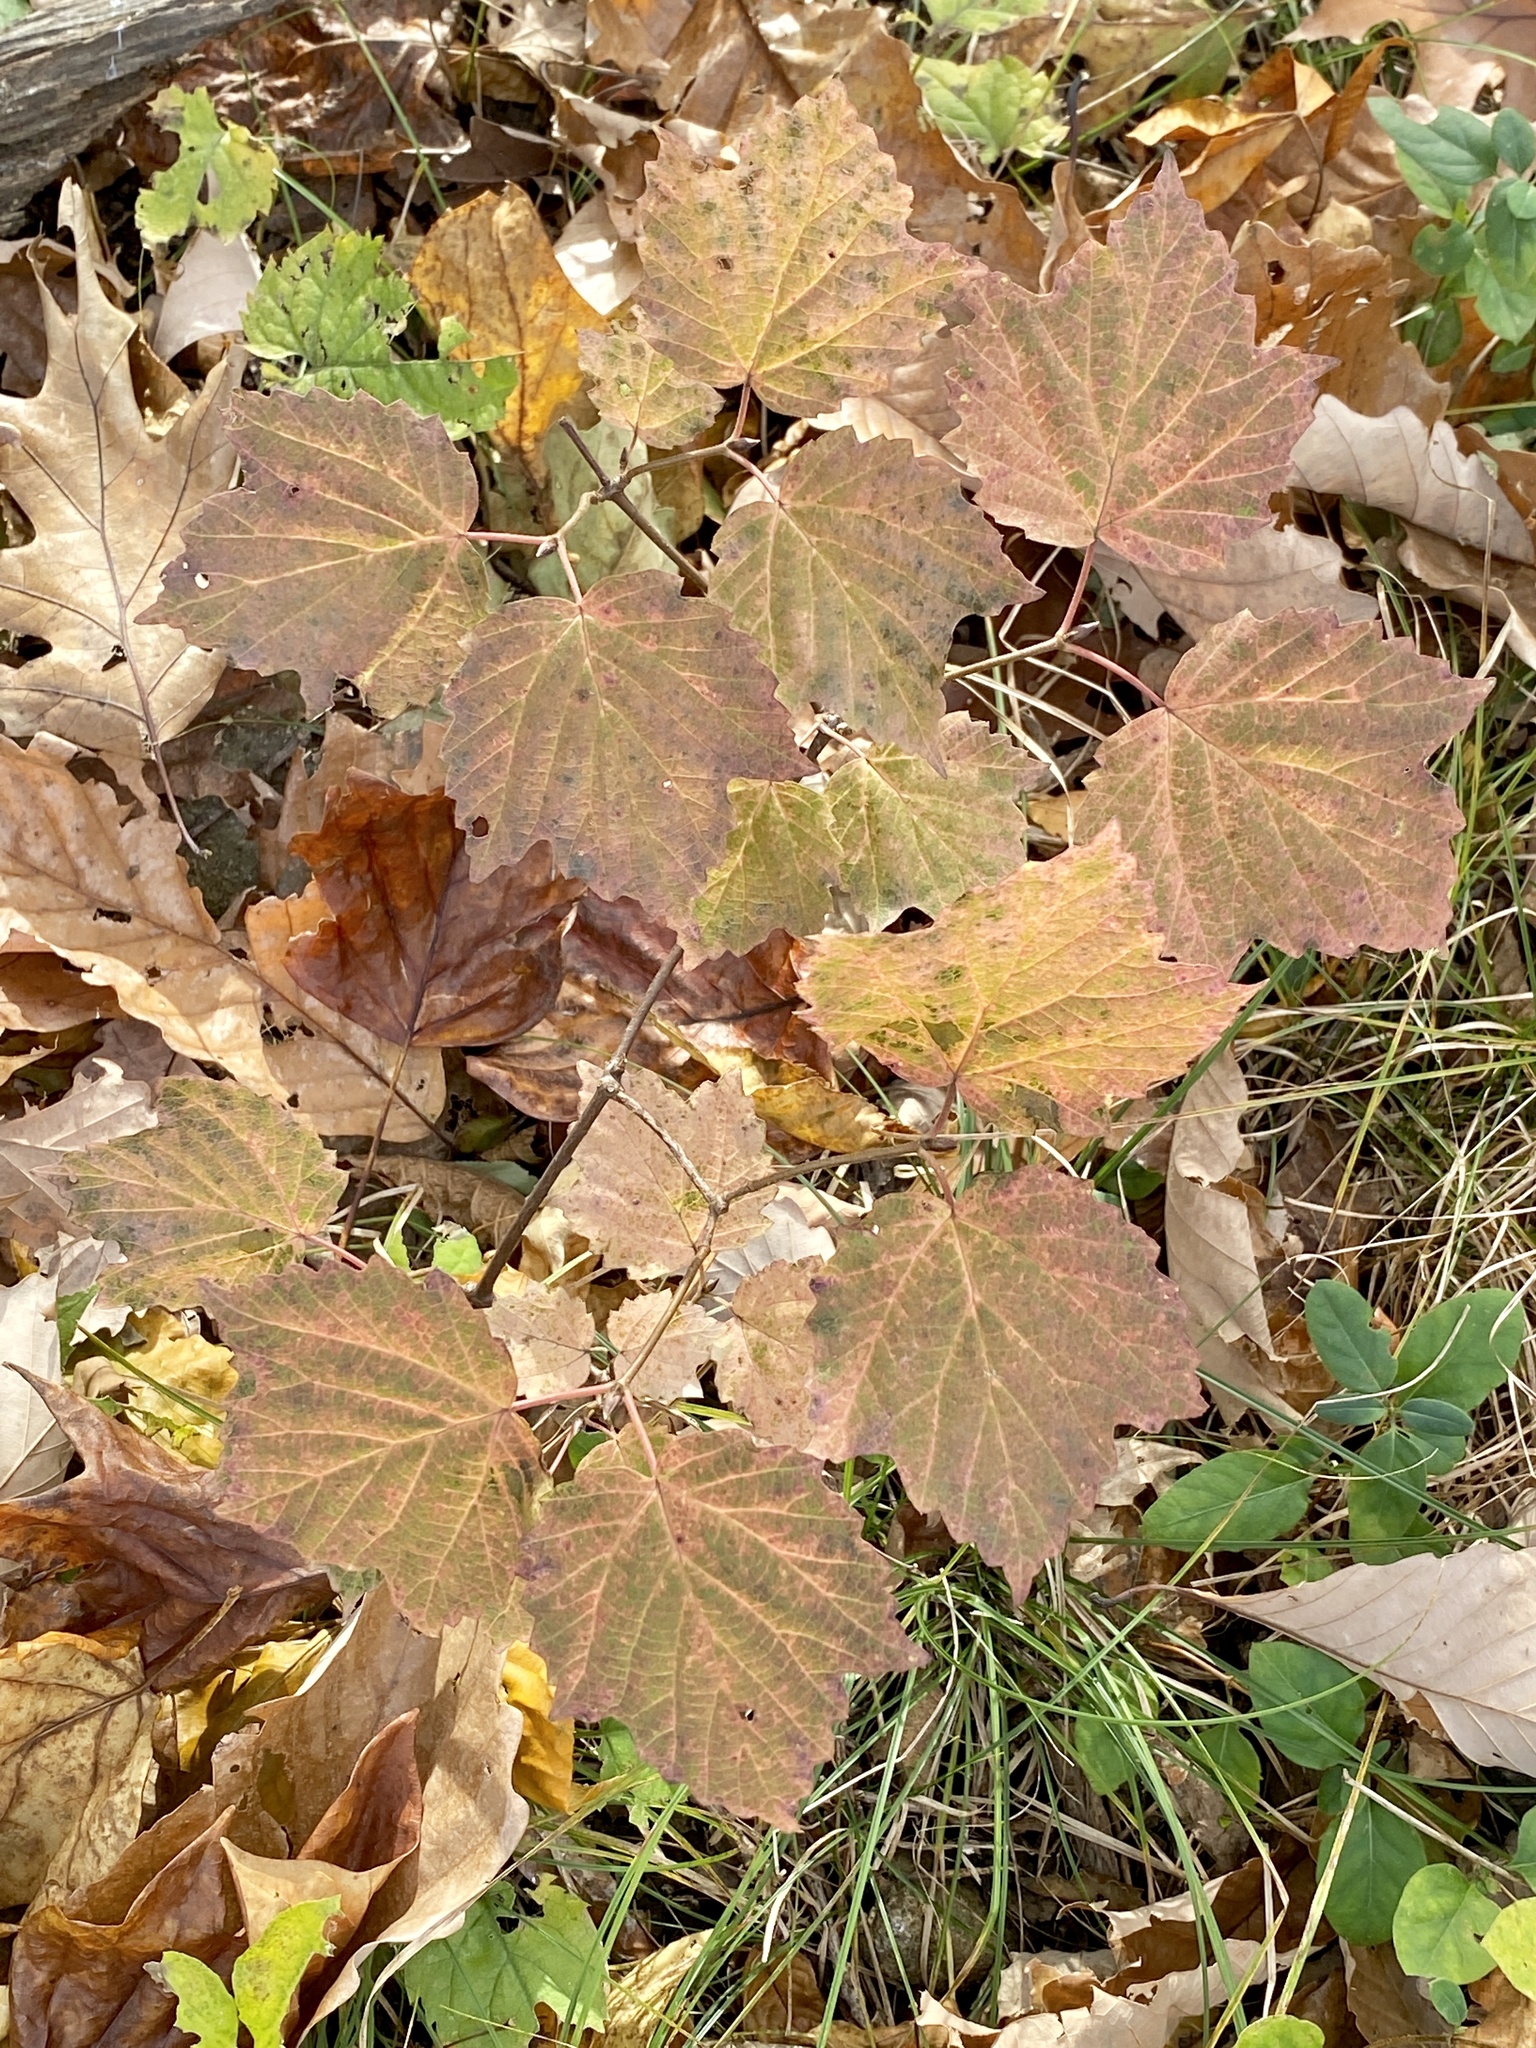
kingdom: Plantae
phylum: Tracheophyta
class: Magnoliopsida
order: Dipsacales
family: Viburnaceae
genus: Viburnum
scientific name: Viburnum acerifolium
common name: Dockmackie
